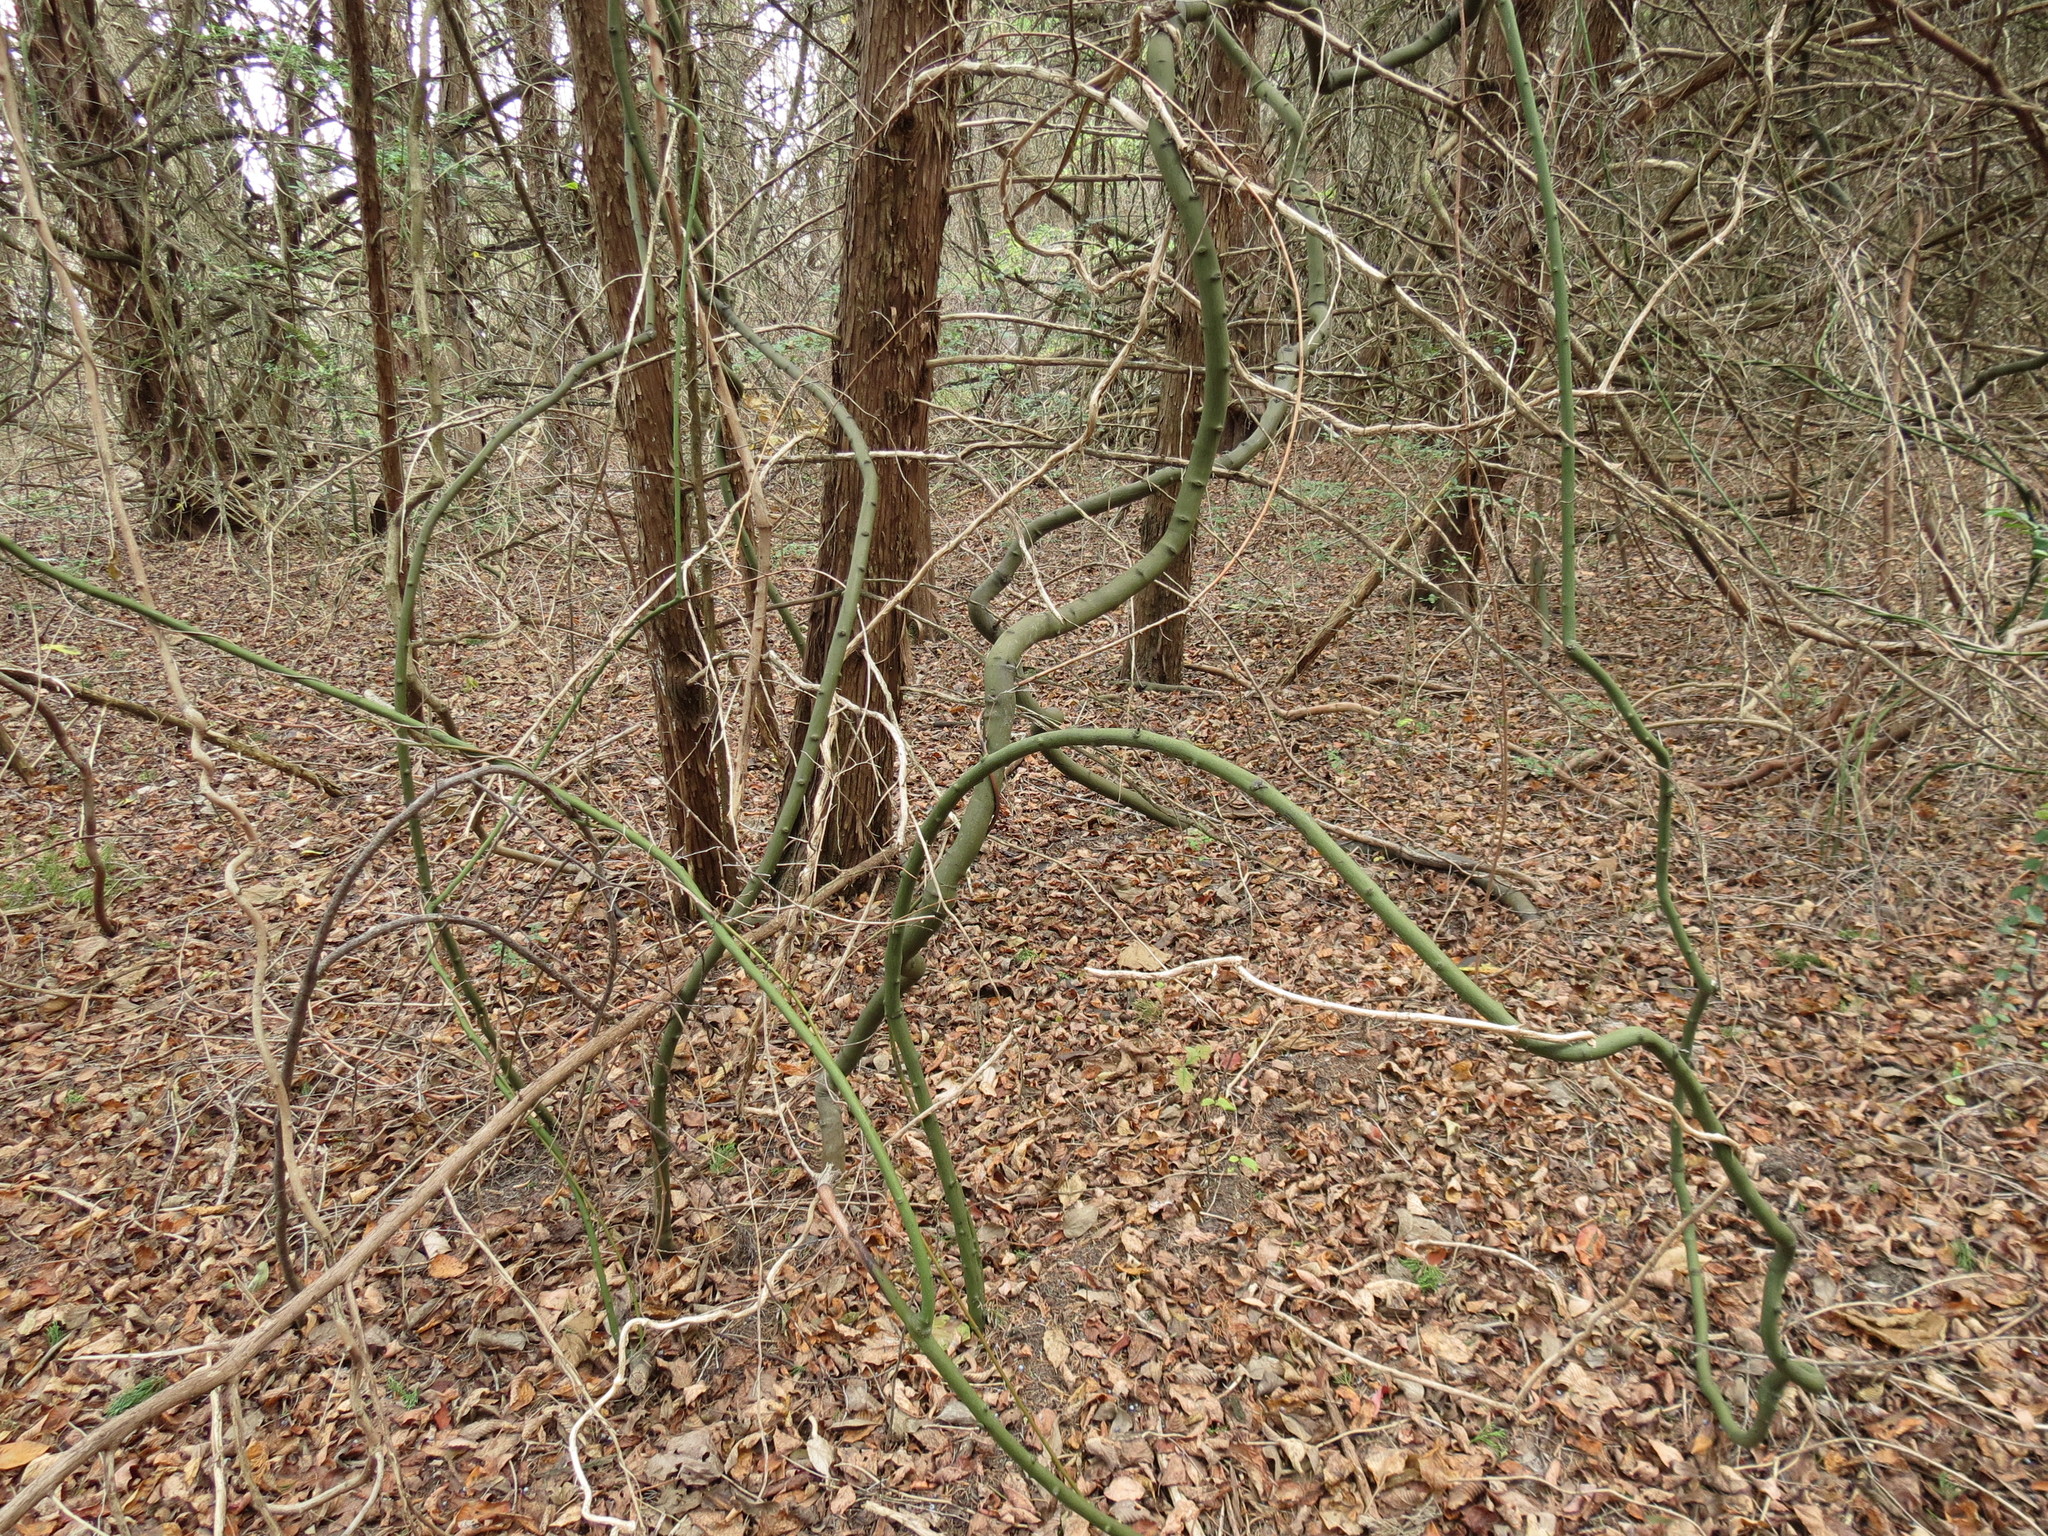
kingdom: Plantae
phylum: Tracheophyta
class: Magnoliopsida
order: Rosales
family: Rhamnaceae
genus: Berchemia
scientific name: Berchemia scandens
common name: Supplejack
